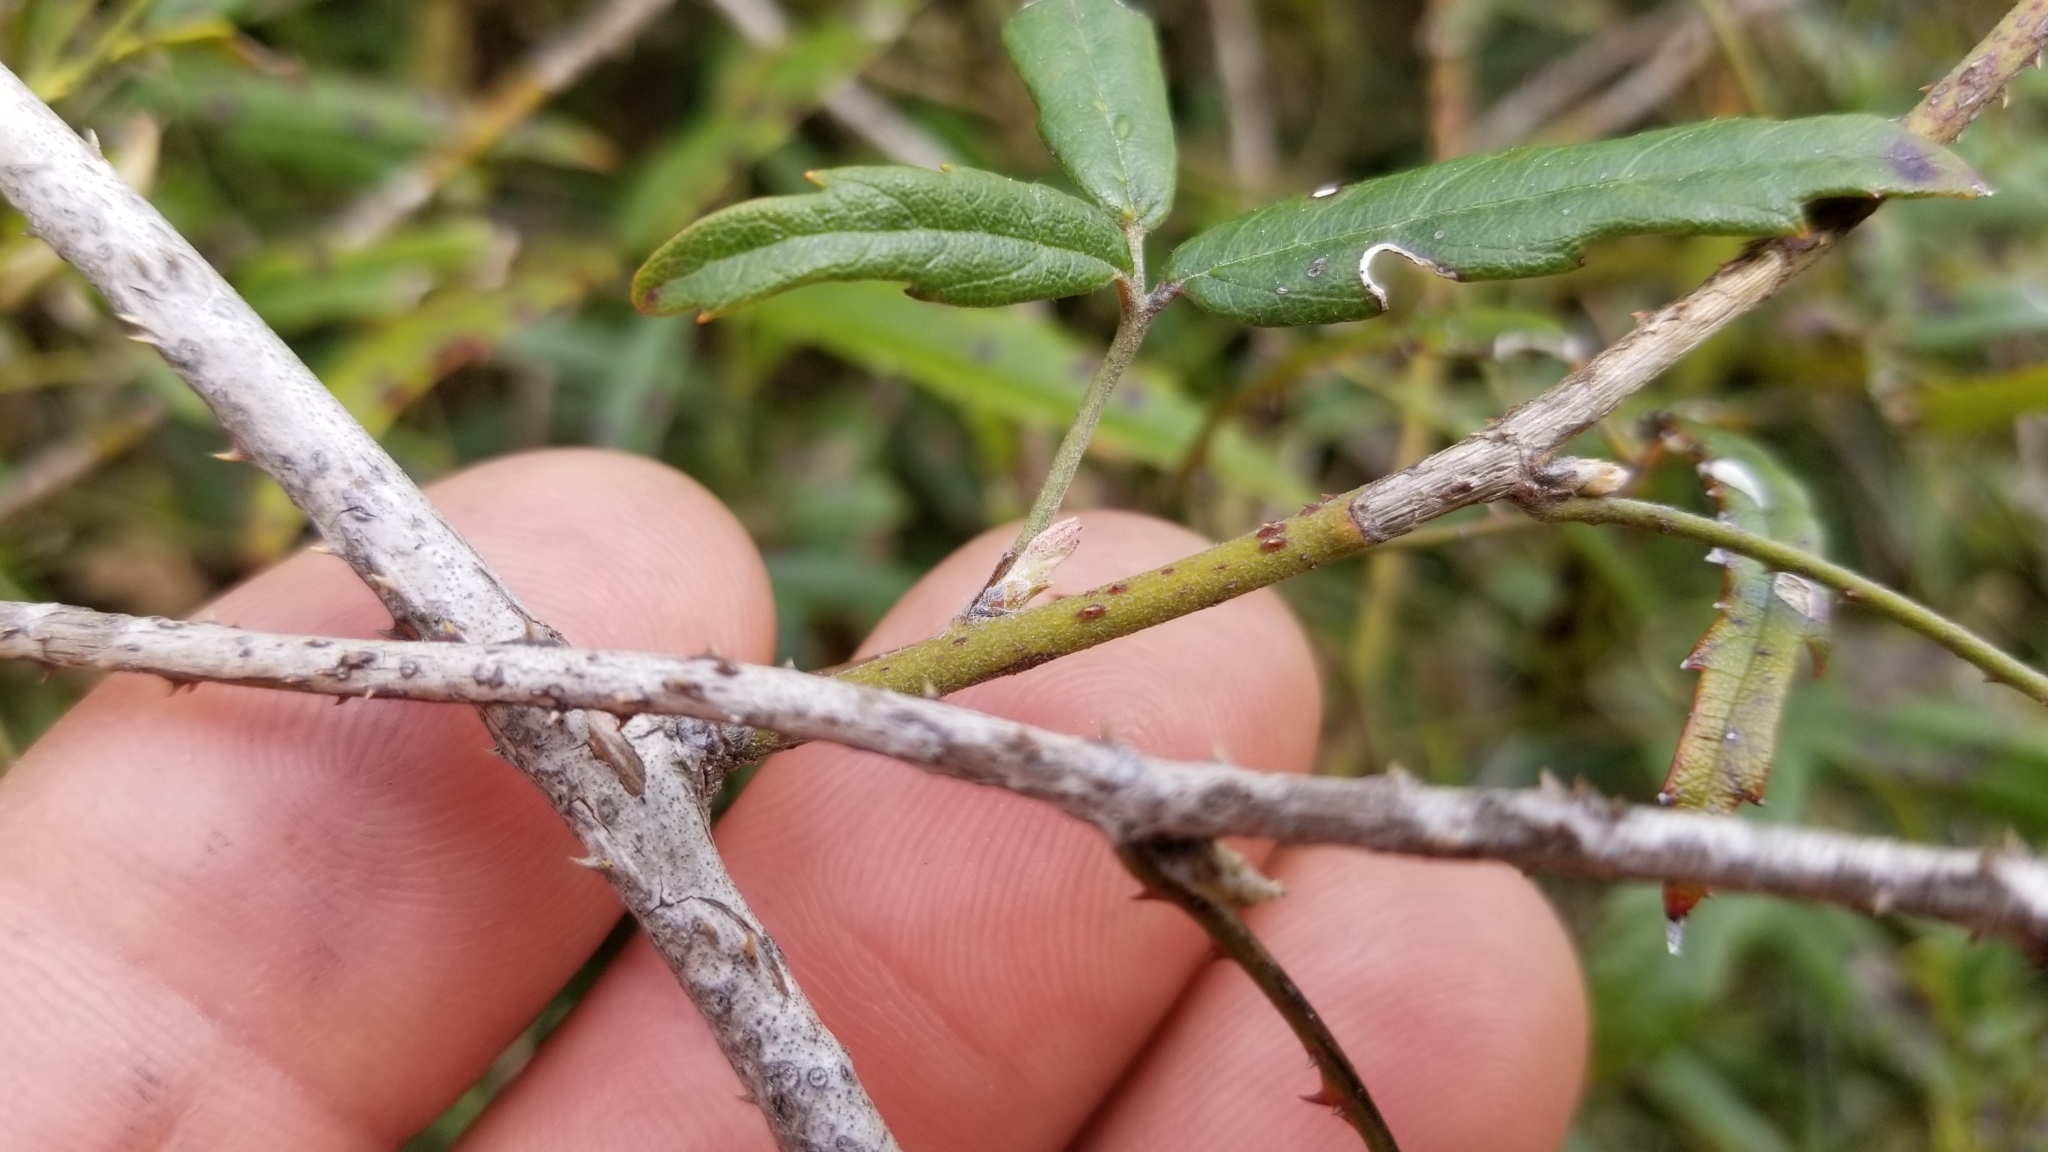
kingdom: Plantae
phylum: Tracheophyta
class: Magnoliopsida
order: Rosales
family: Rosaceae
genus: Rubus
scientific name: Rubus schmidelioides
